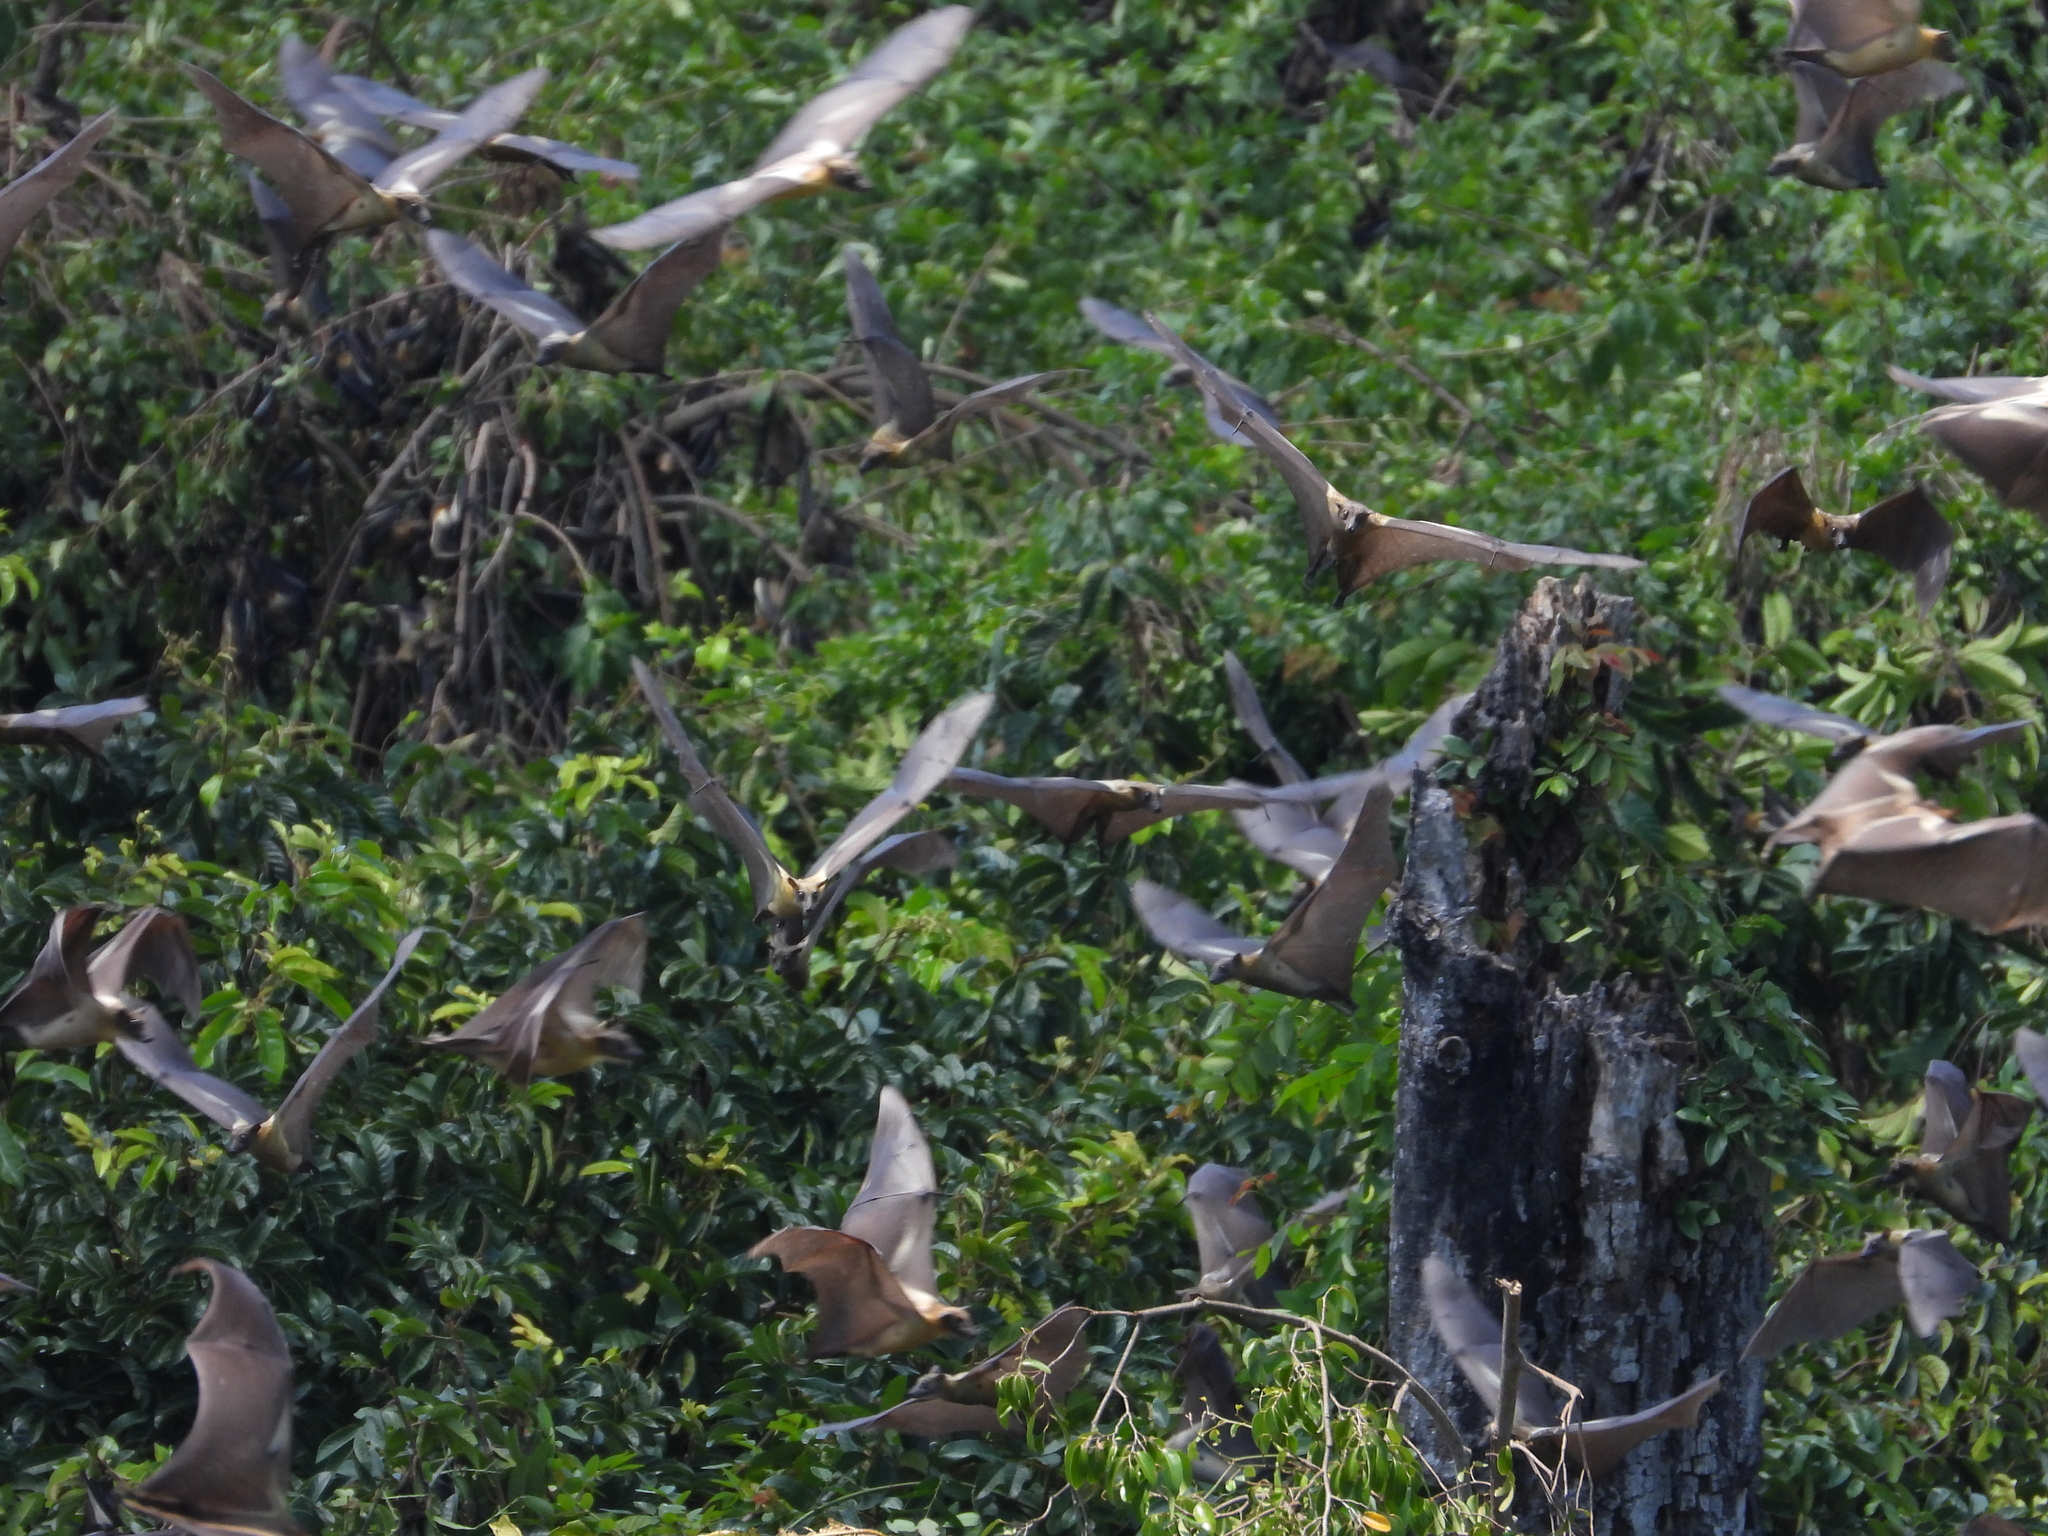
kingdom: Animalia
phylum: Chordata
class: Mammalia
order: Chiroptera
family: Pteropodidae
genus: Eidolon
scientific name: Eidolon helvum
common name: Straw-colored fruit bat
